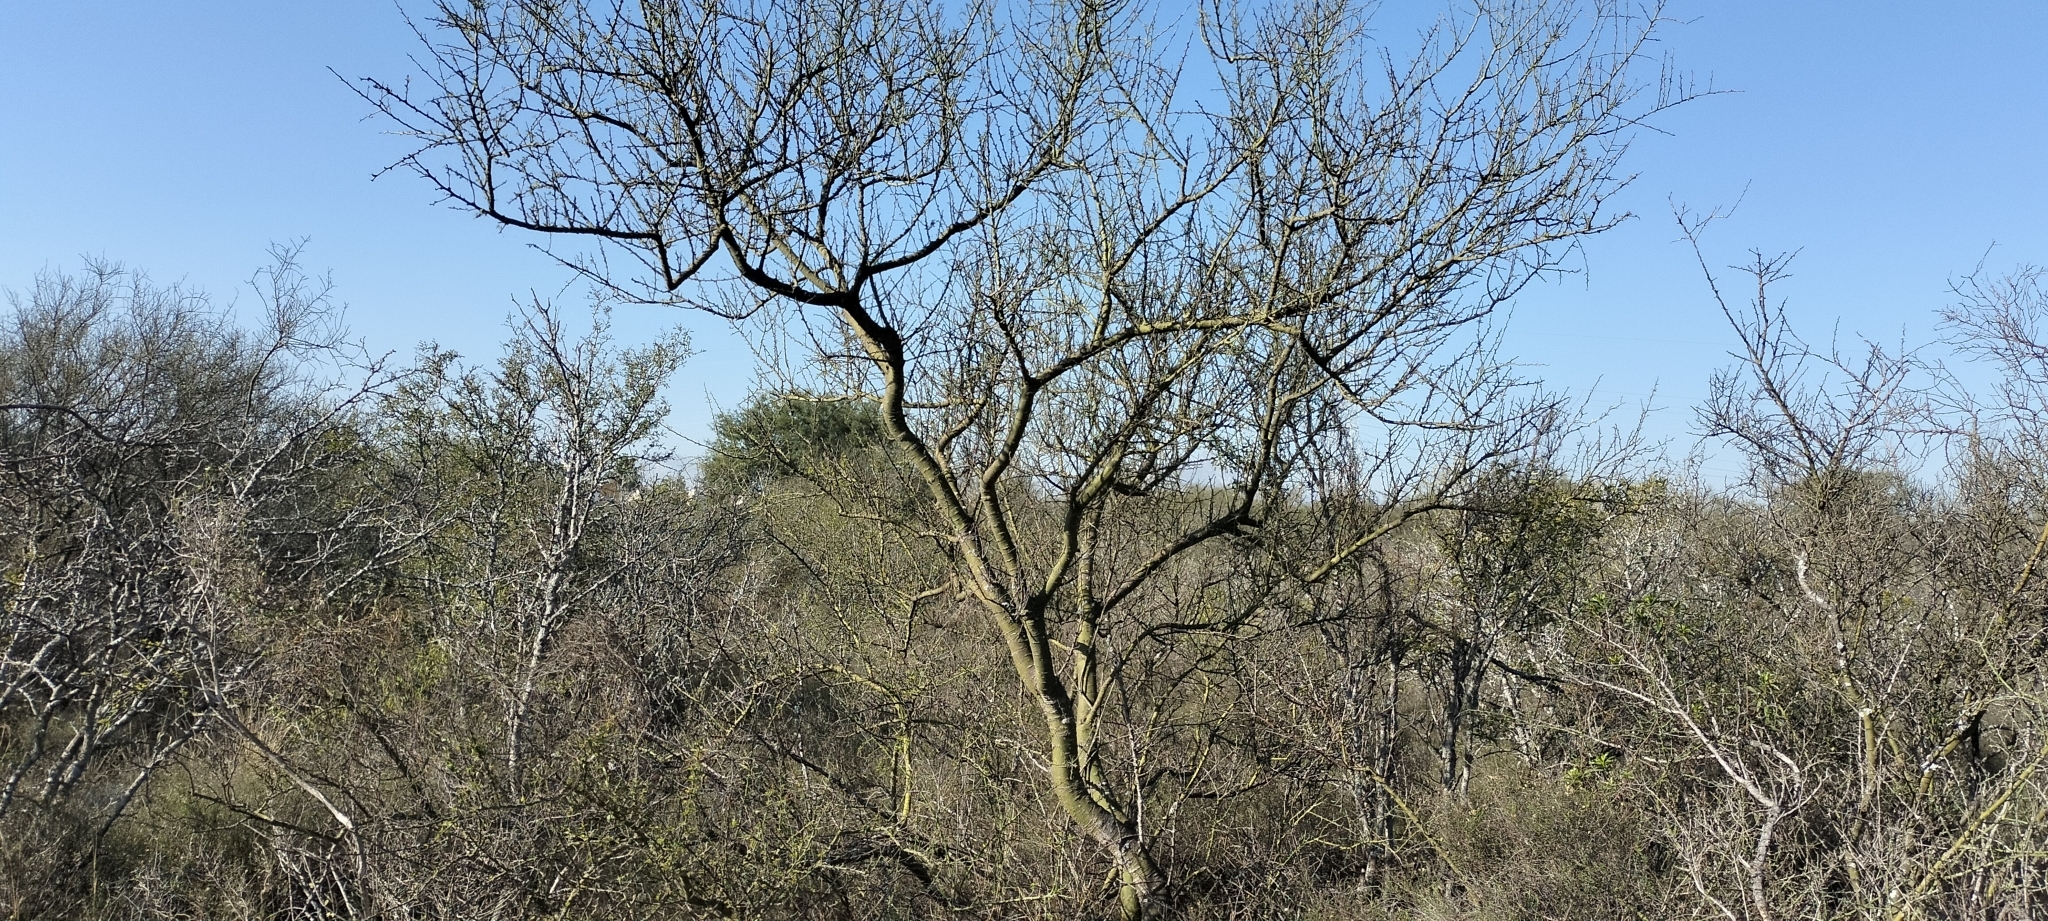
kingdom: Plantae
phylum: Tracheophyta
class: Magnoliopsida
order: Fabales
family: Fabaceae
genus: Parkinsonia
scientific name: Parkinsonia texana
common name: Texas paloverde
